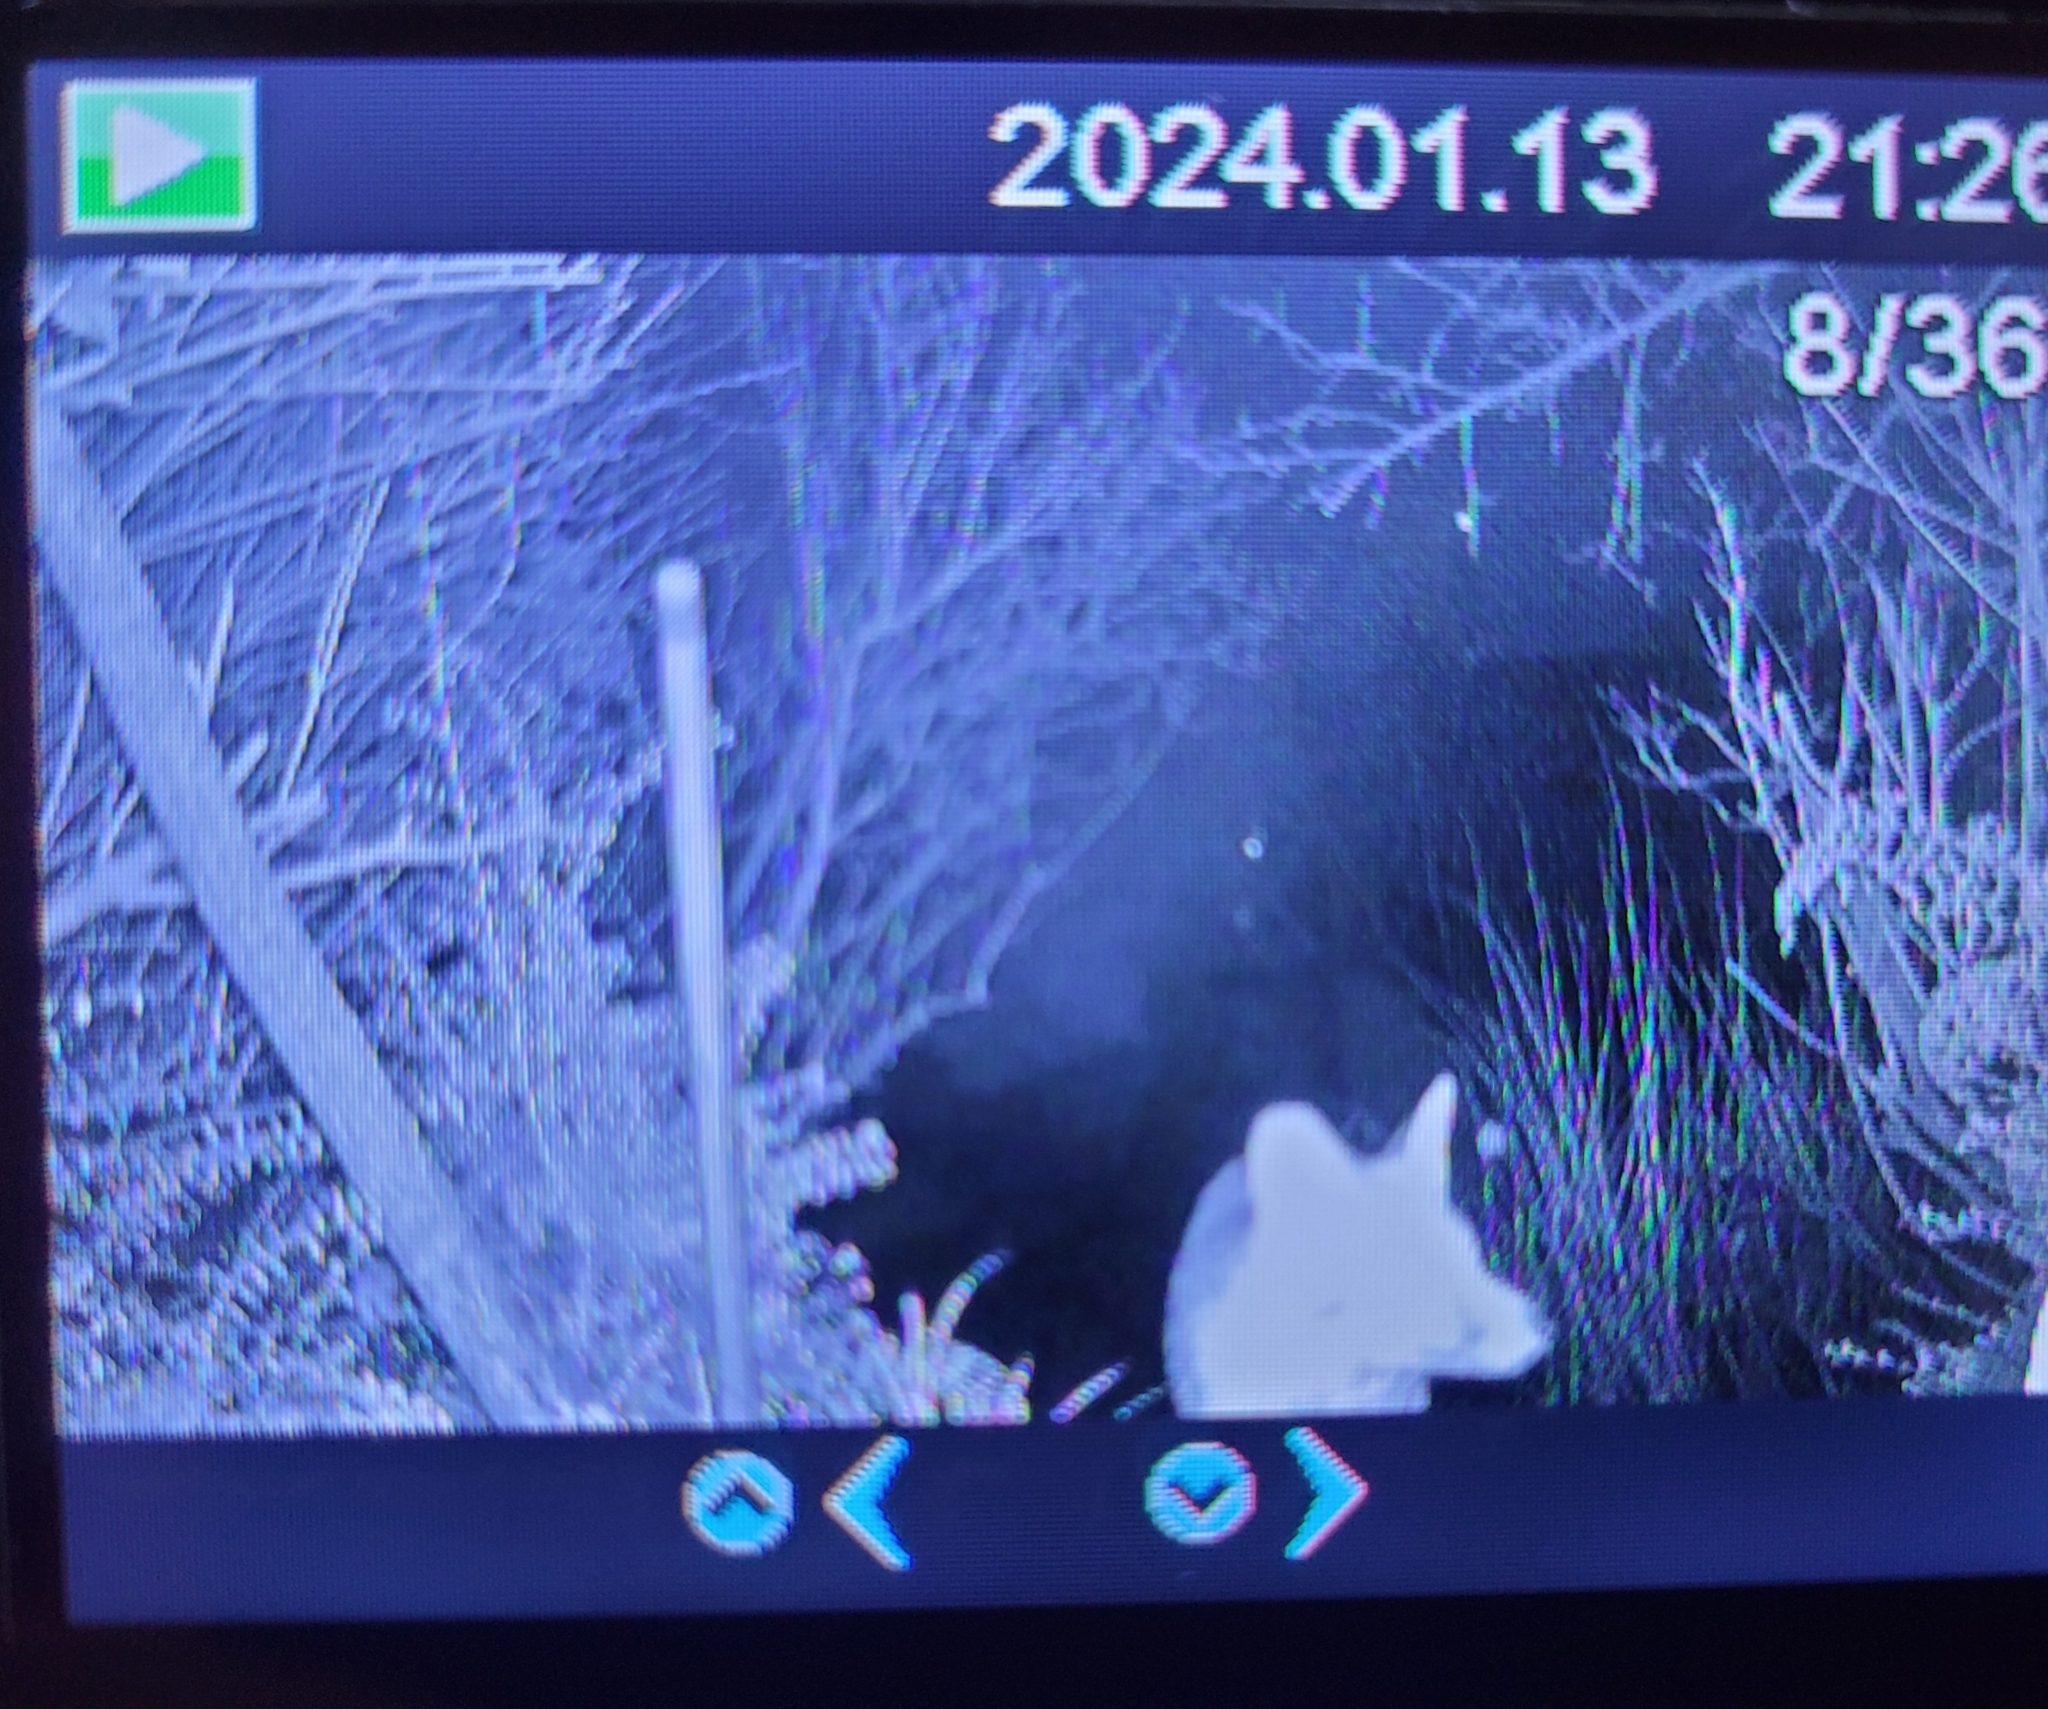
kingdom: Animalia
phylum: Chordata
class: Mammalia
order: Carnivora
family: Canidae
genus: Vulpes
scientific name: Vulpes vulpes
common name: Red fox
